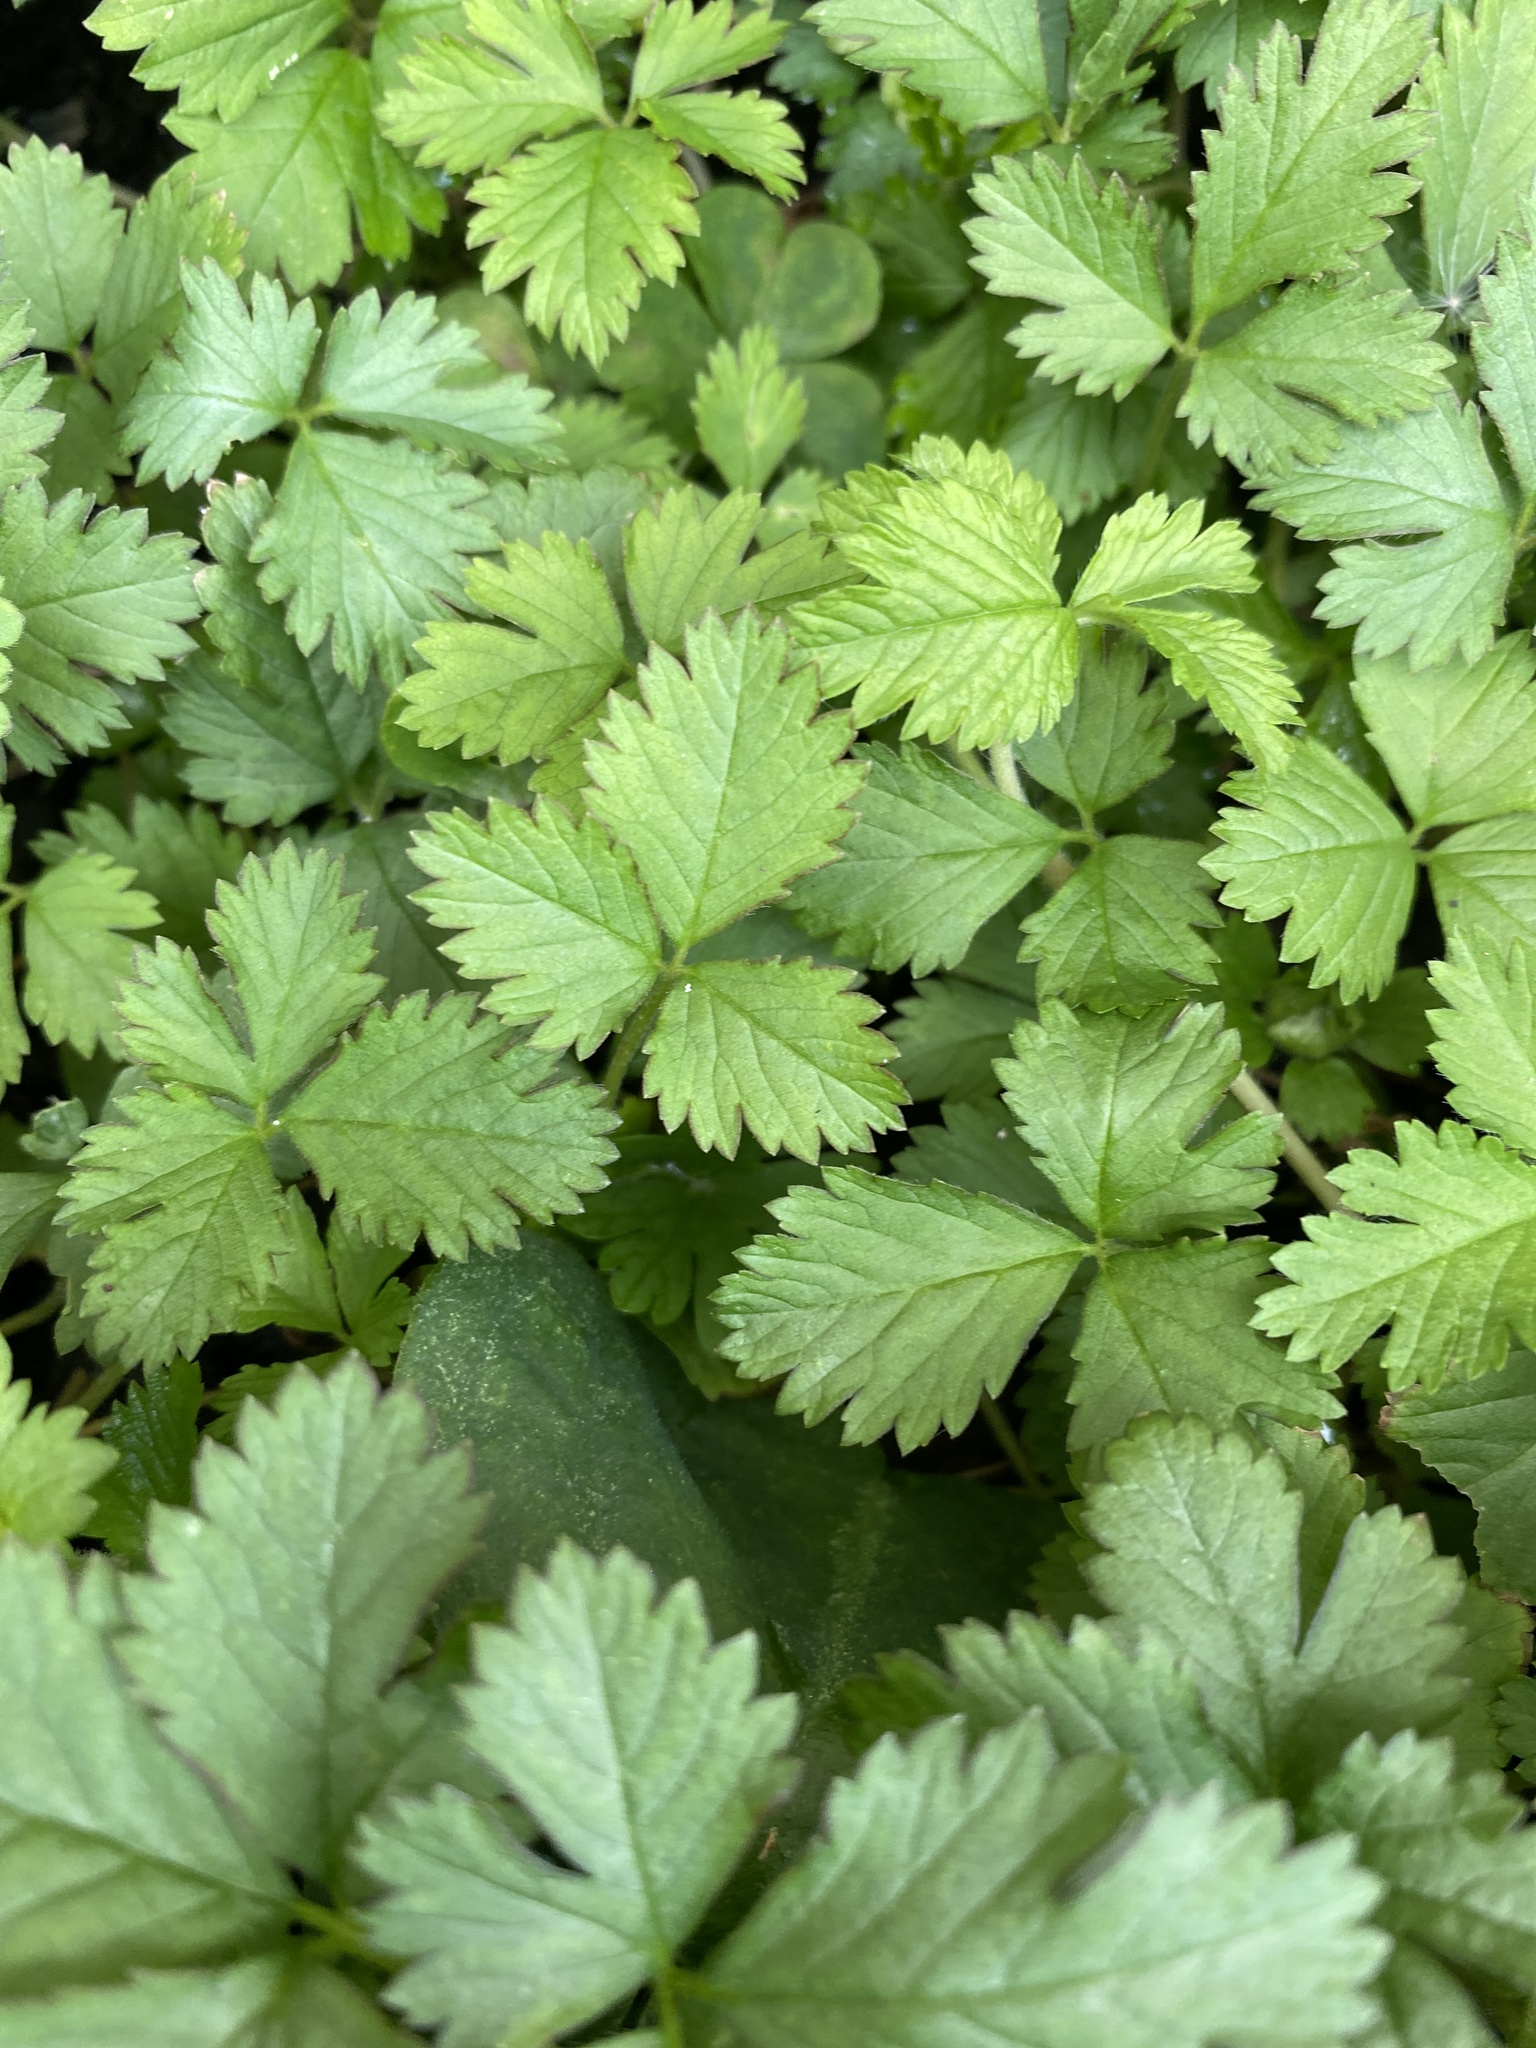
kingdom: Plantae
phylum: Tracheophyta
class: Magnoliopsida
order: Rosales
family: Rosaceae
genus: Potentilla
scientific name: Potentilla indica
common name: Yellow-flowered strawberry
